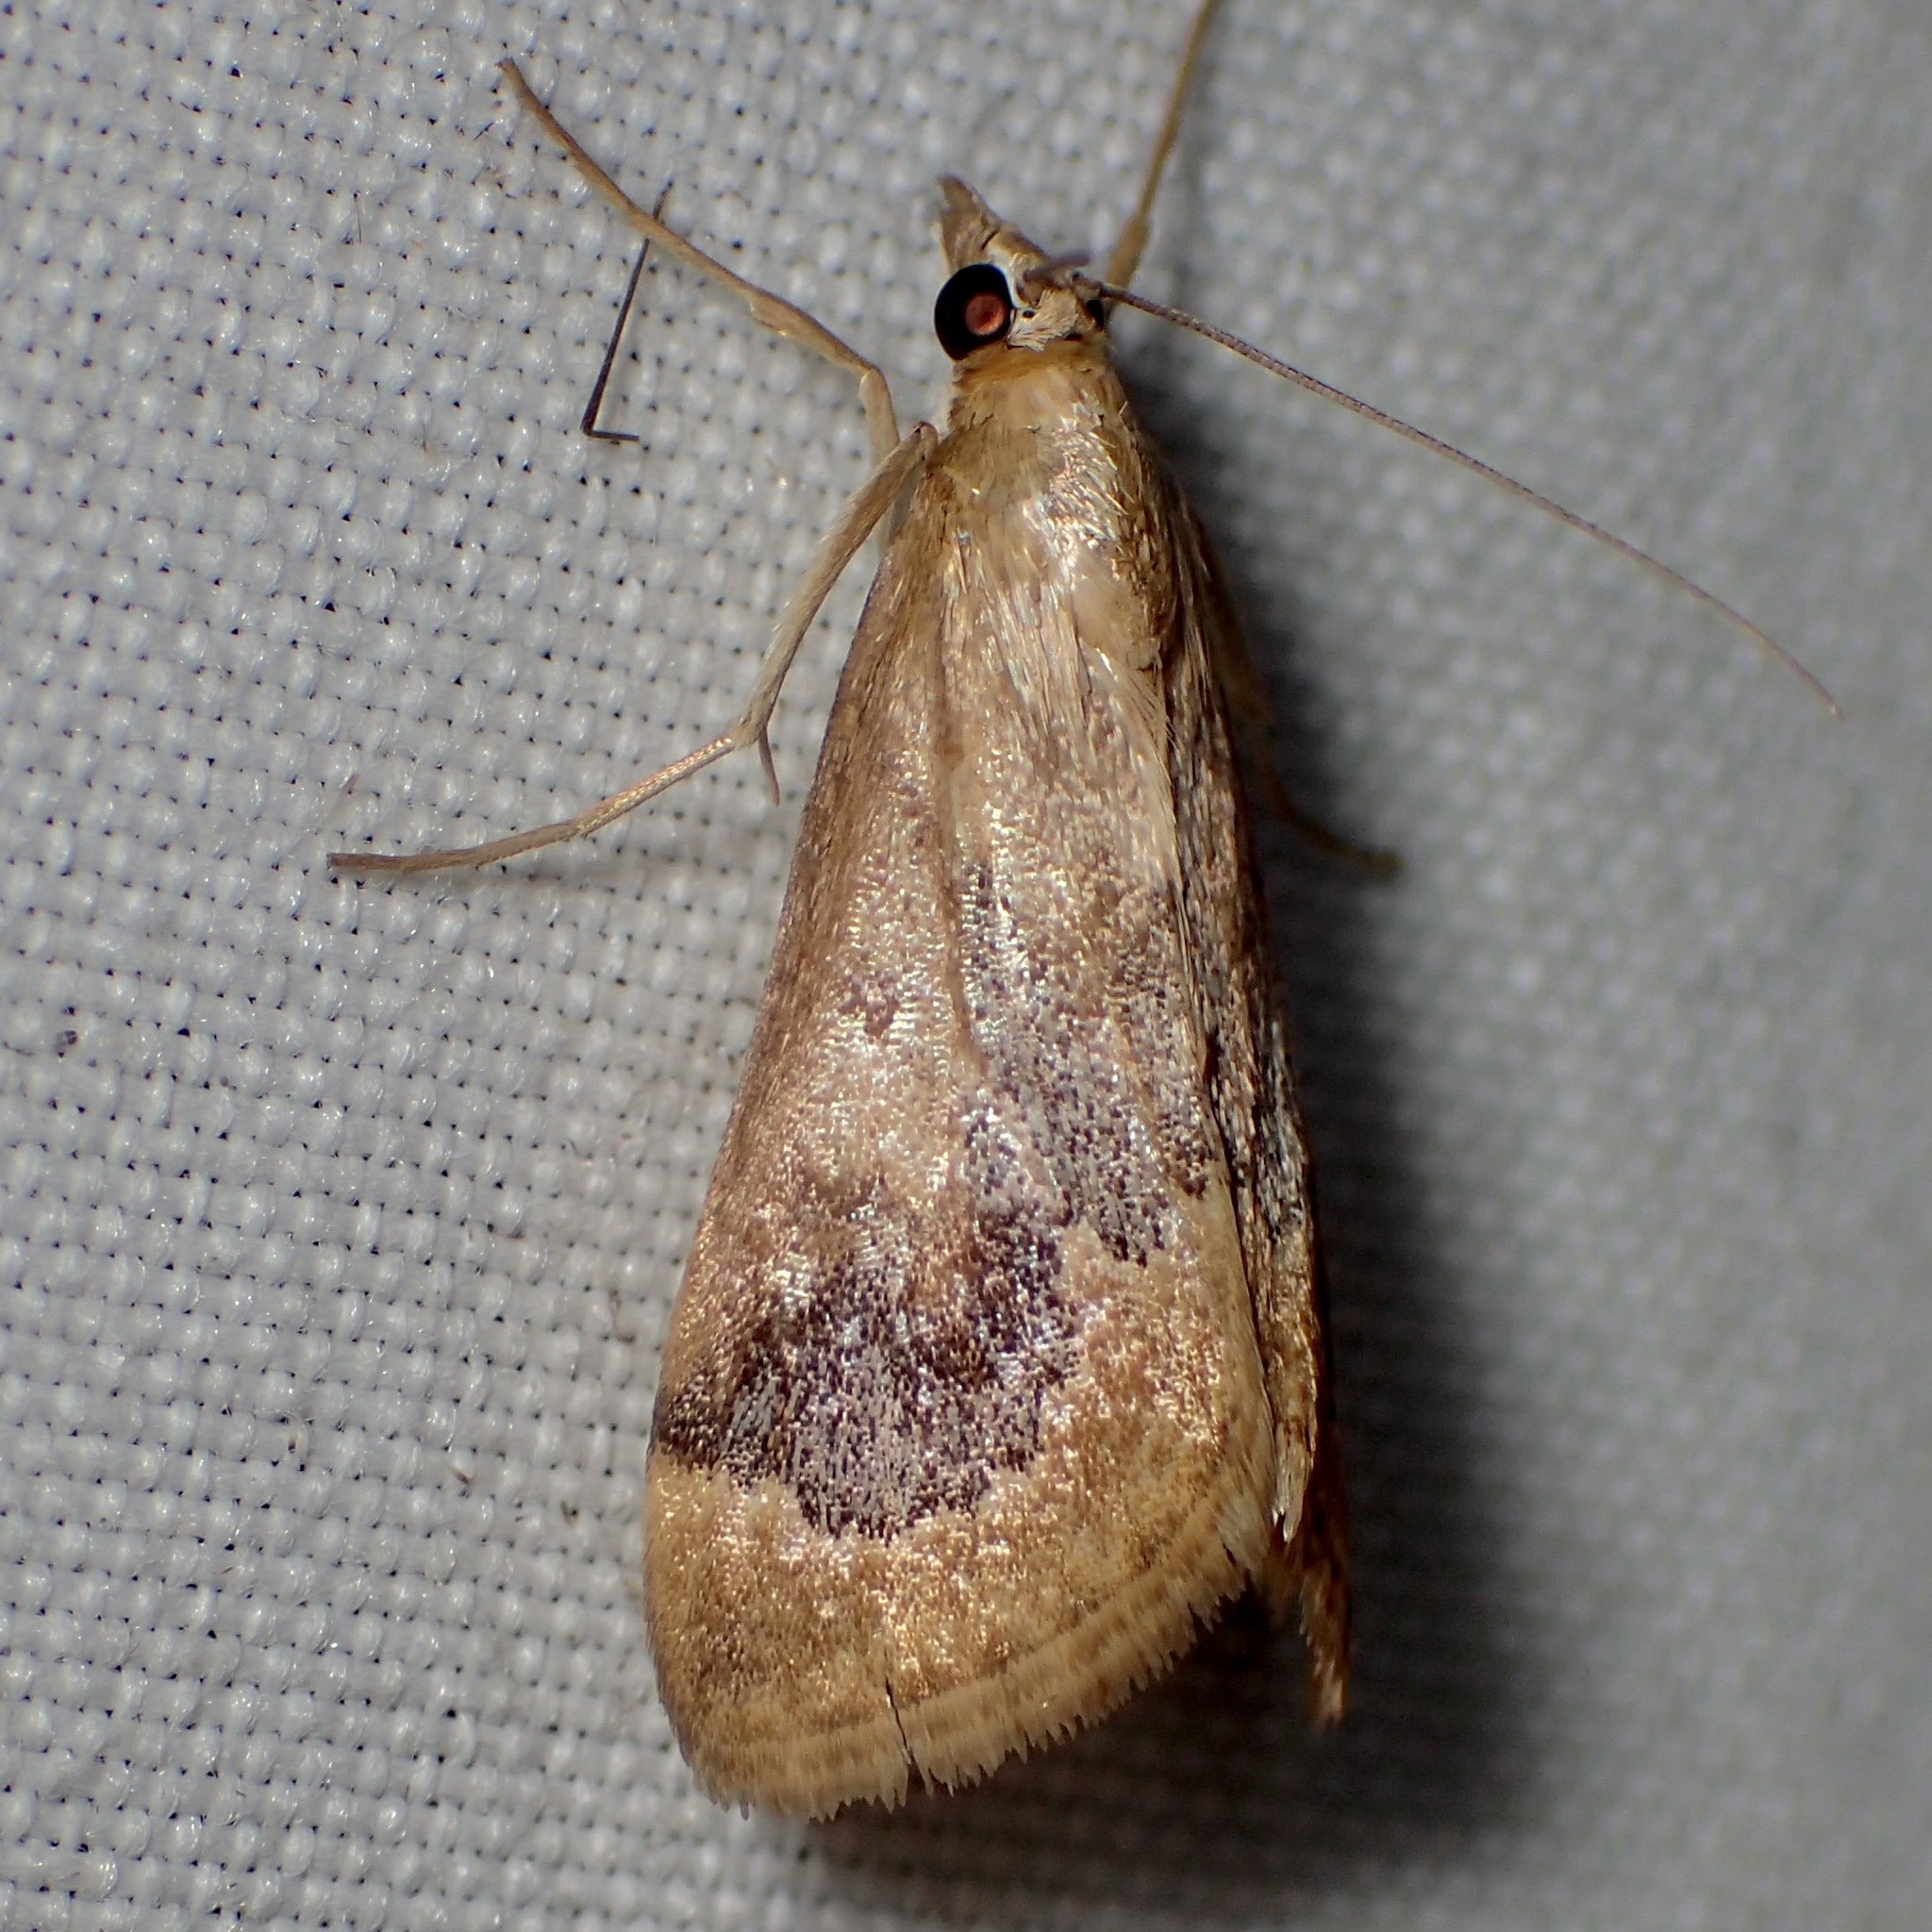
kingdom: Animalia
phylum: Arthropoda
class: Insecta
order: Lepidoptera
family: Crambidae
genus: Loxostege
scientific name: Loxostege typhonalis
